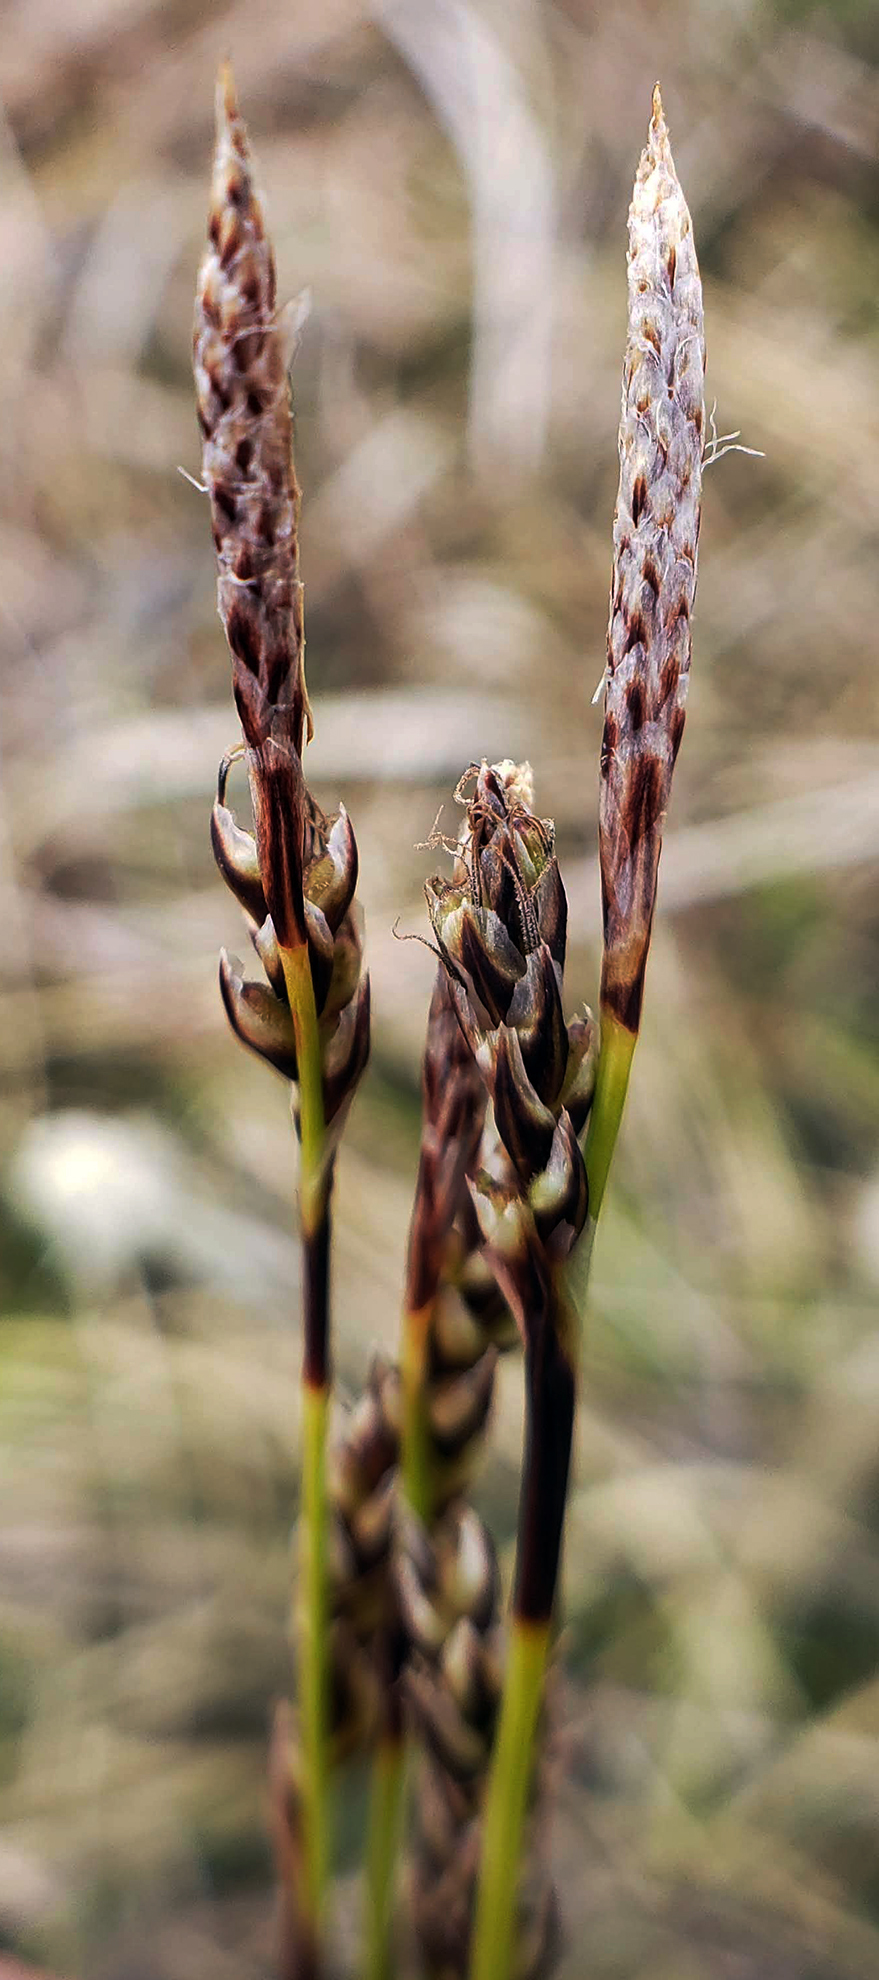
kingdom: Plantae
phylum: Tracheophyta
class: Liliopsida
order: Poales
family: Cyperaceae
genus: Carex
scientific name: Carex richardsonii
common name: Prairie hummock sedge
